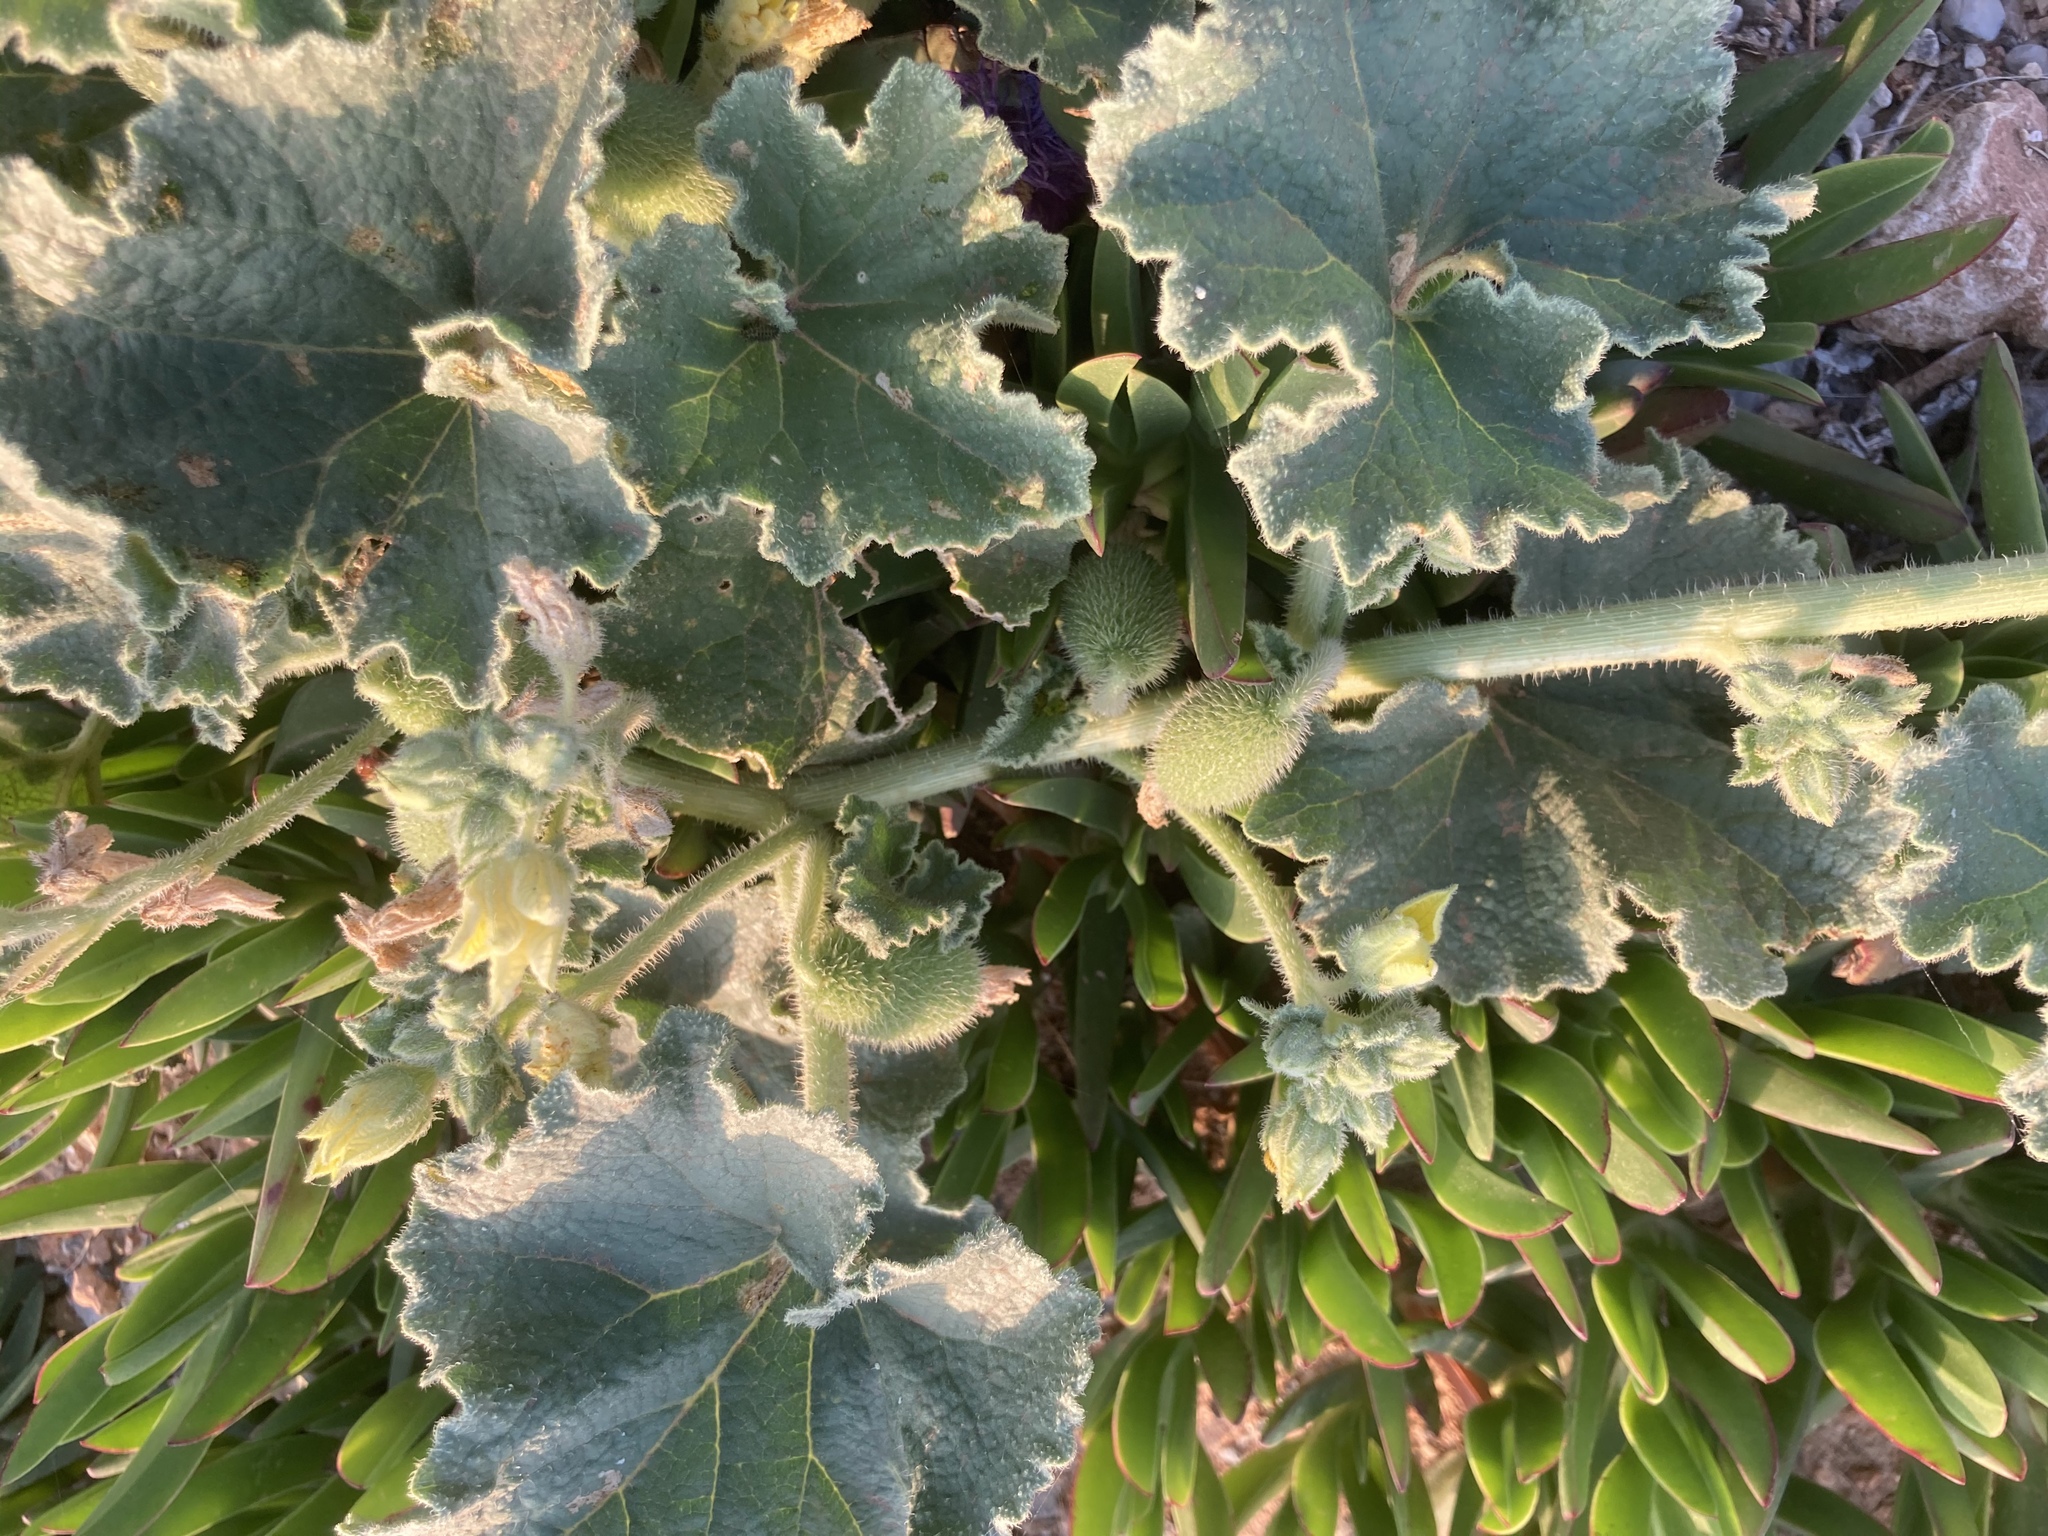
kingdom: Plantae
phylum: Tracheophyta
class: Magnoliopsida
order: Cucurbitales
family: Cucurbitaceae
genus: Ecballium
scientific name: Ecballium elaterium
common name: Squirting cucumber
